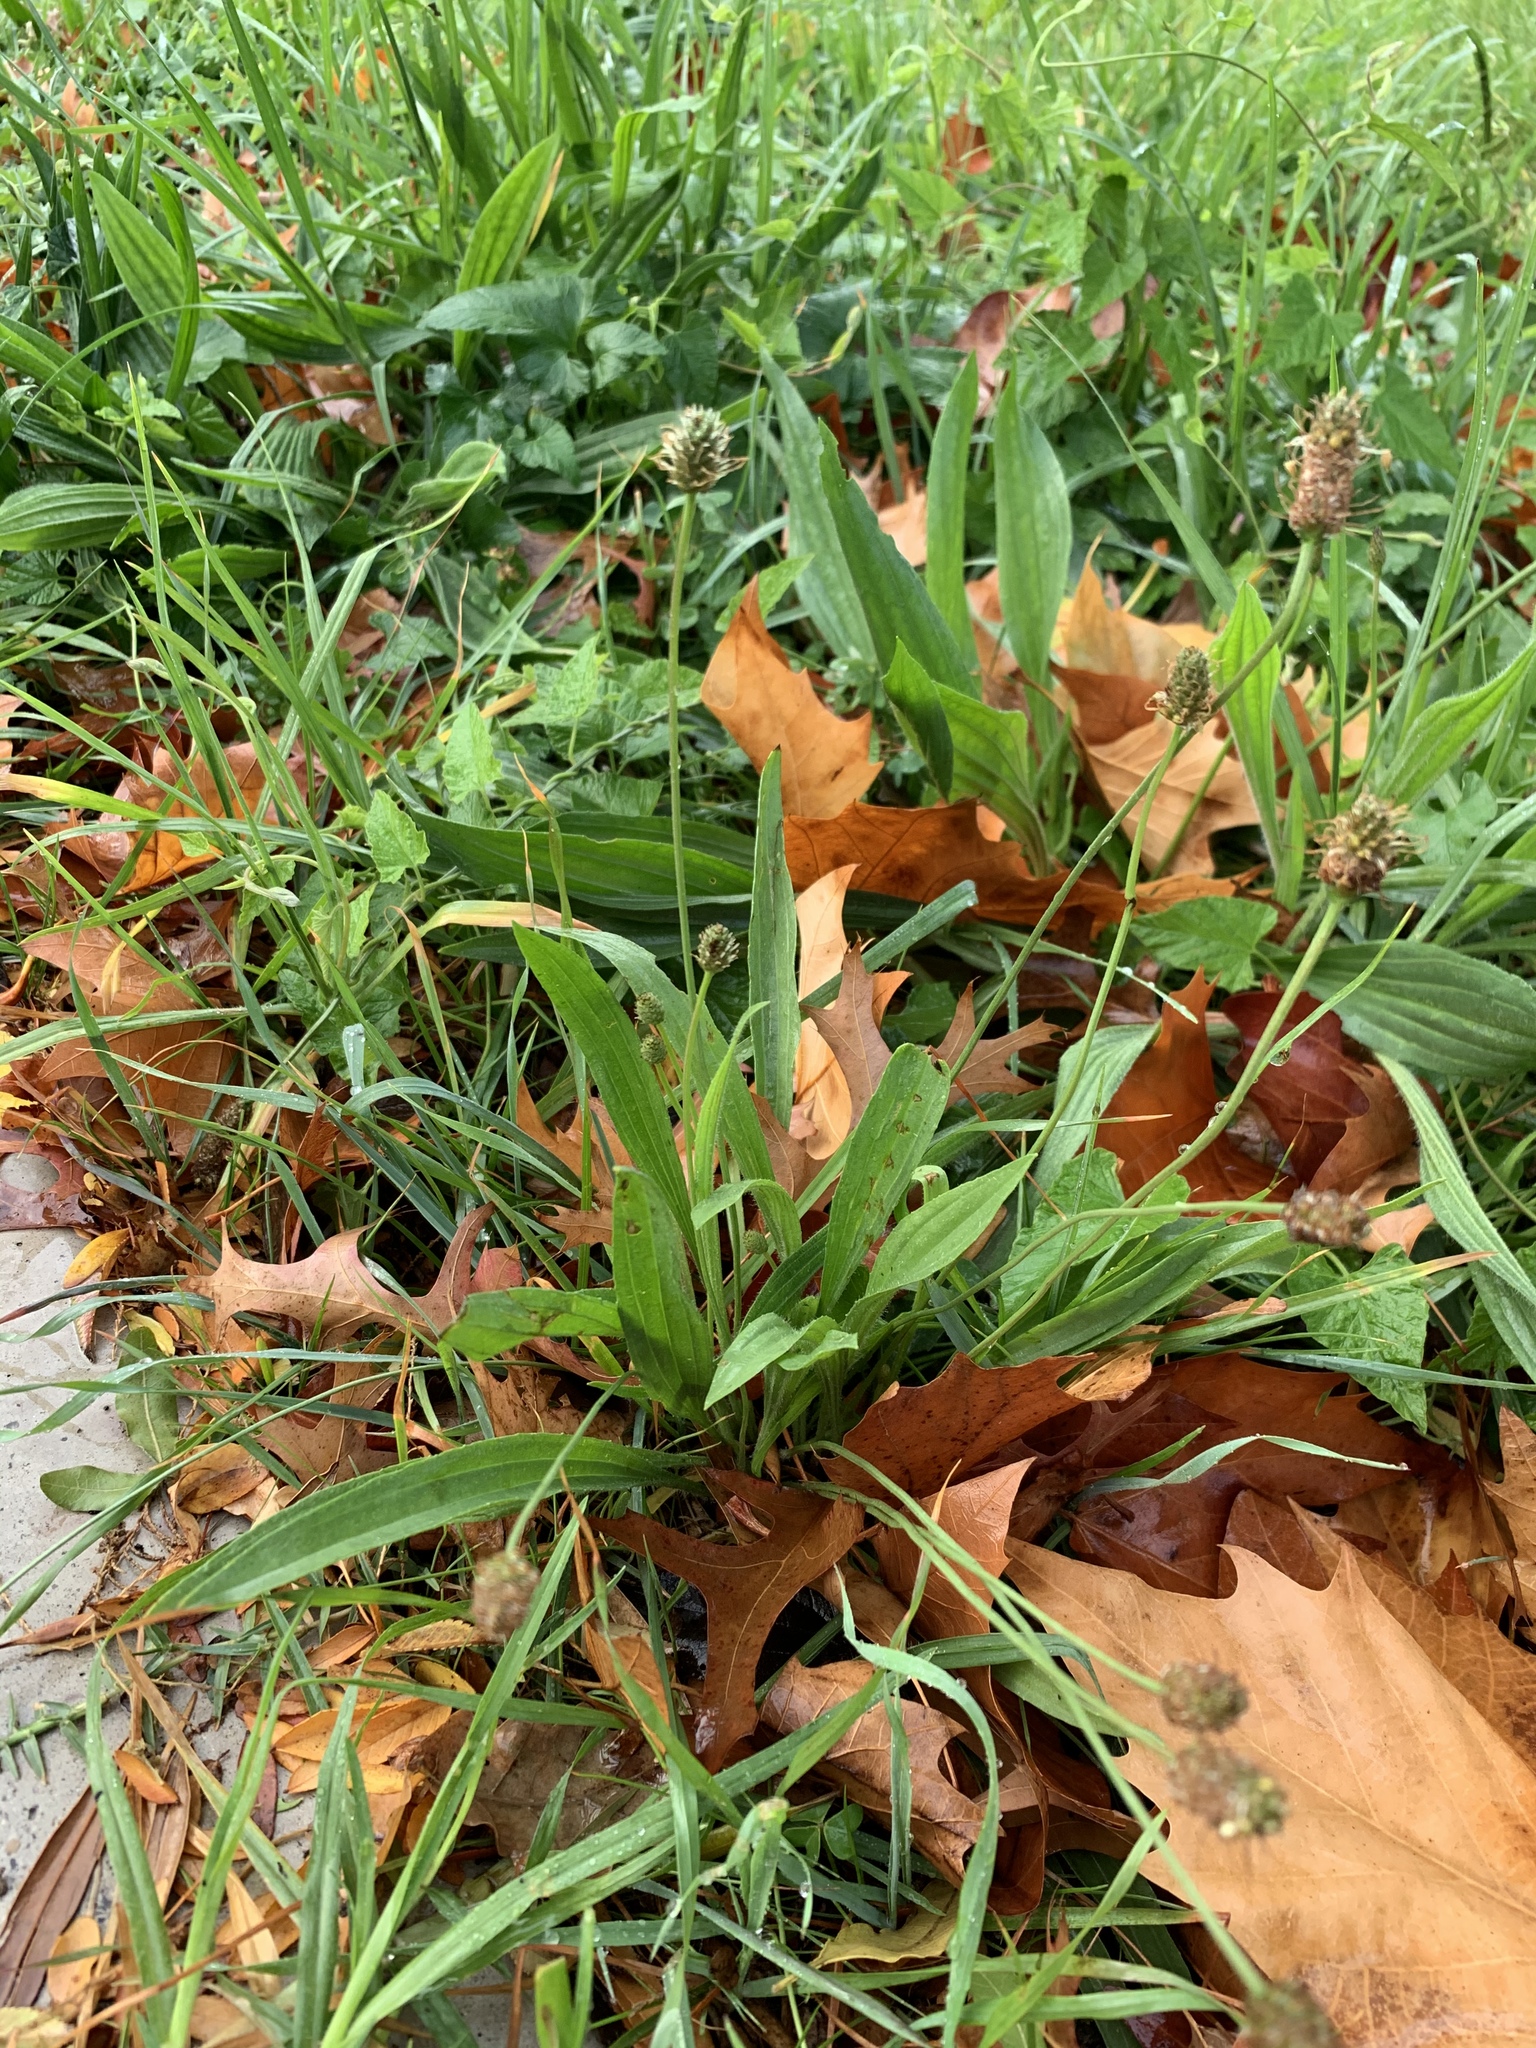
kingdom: Plantae
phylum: Tracheophyta
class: Magnoliopsida
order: Lamiales
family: Plantaginaceae
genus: Plantago
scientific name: Plantago lanceolata
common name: Ribwort plantain
